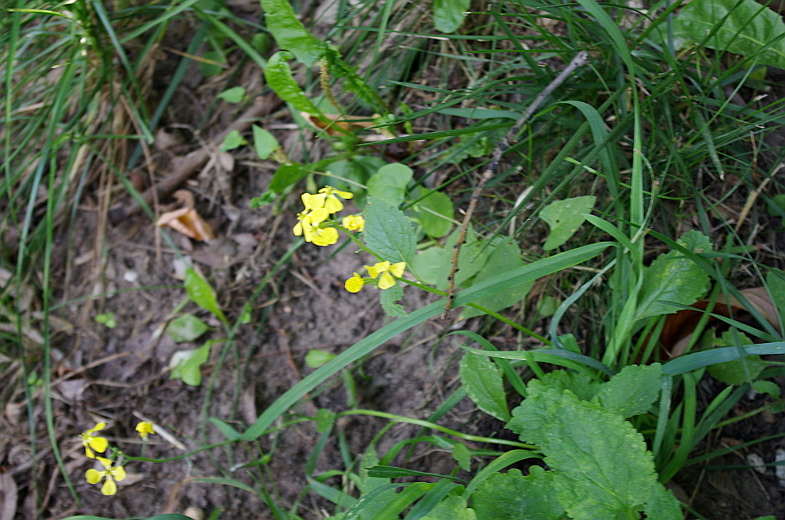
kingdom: Plantae
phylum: Tracheophyta
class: Magnoliopsida
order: Brassicales
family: Brassicaceae
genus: Raphanus
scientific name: Raphanus raphanistrum
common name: Wild radish
